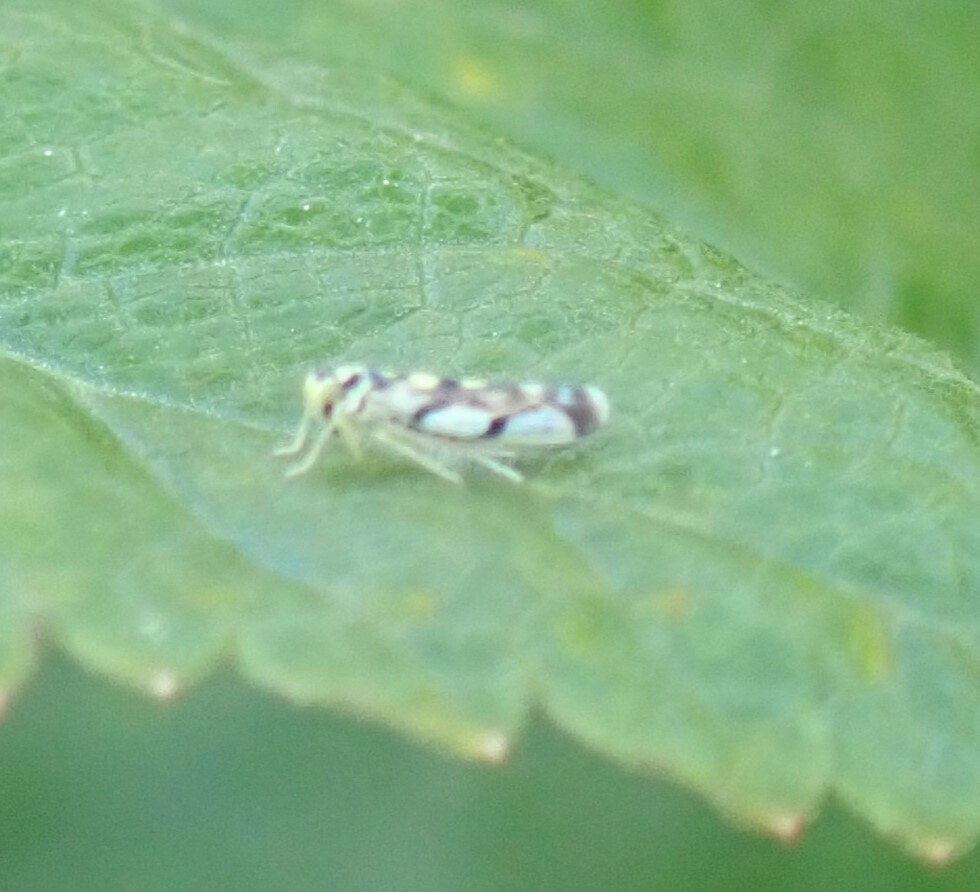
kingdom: Animalia
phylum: Arthropoda
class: Insecta
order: Hemiptera
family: Cicadellidae
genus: Eupteryx
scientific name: Eupteryx atropunctata
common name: Leafhopper
